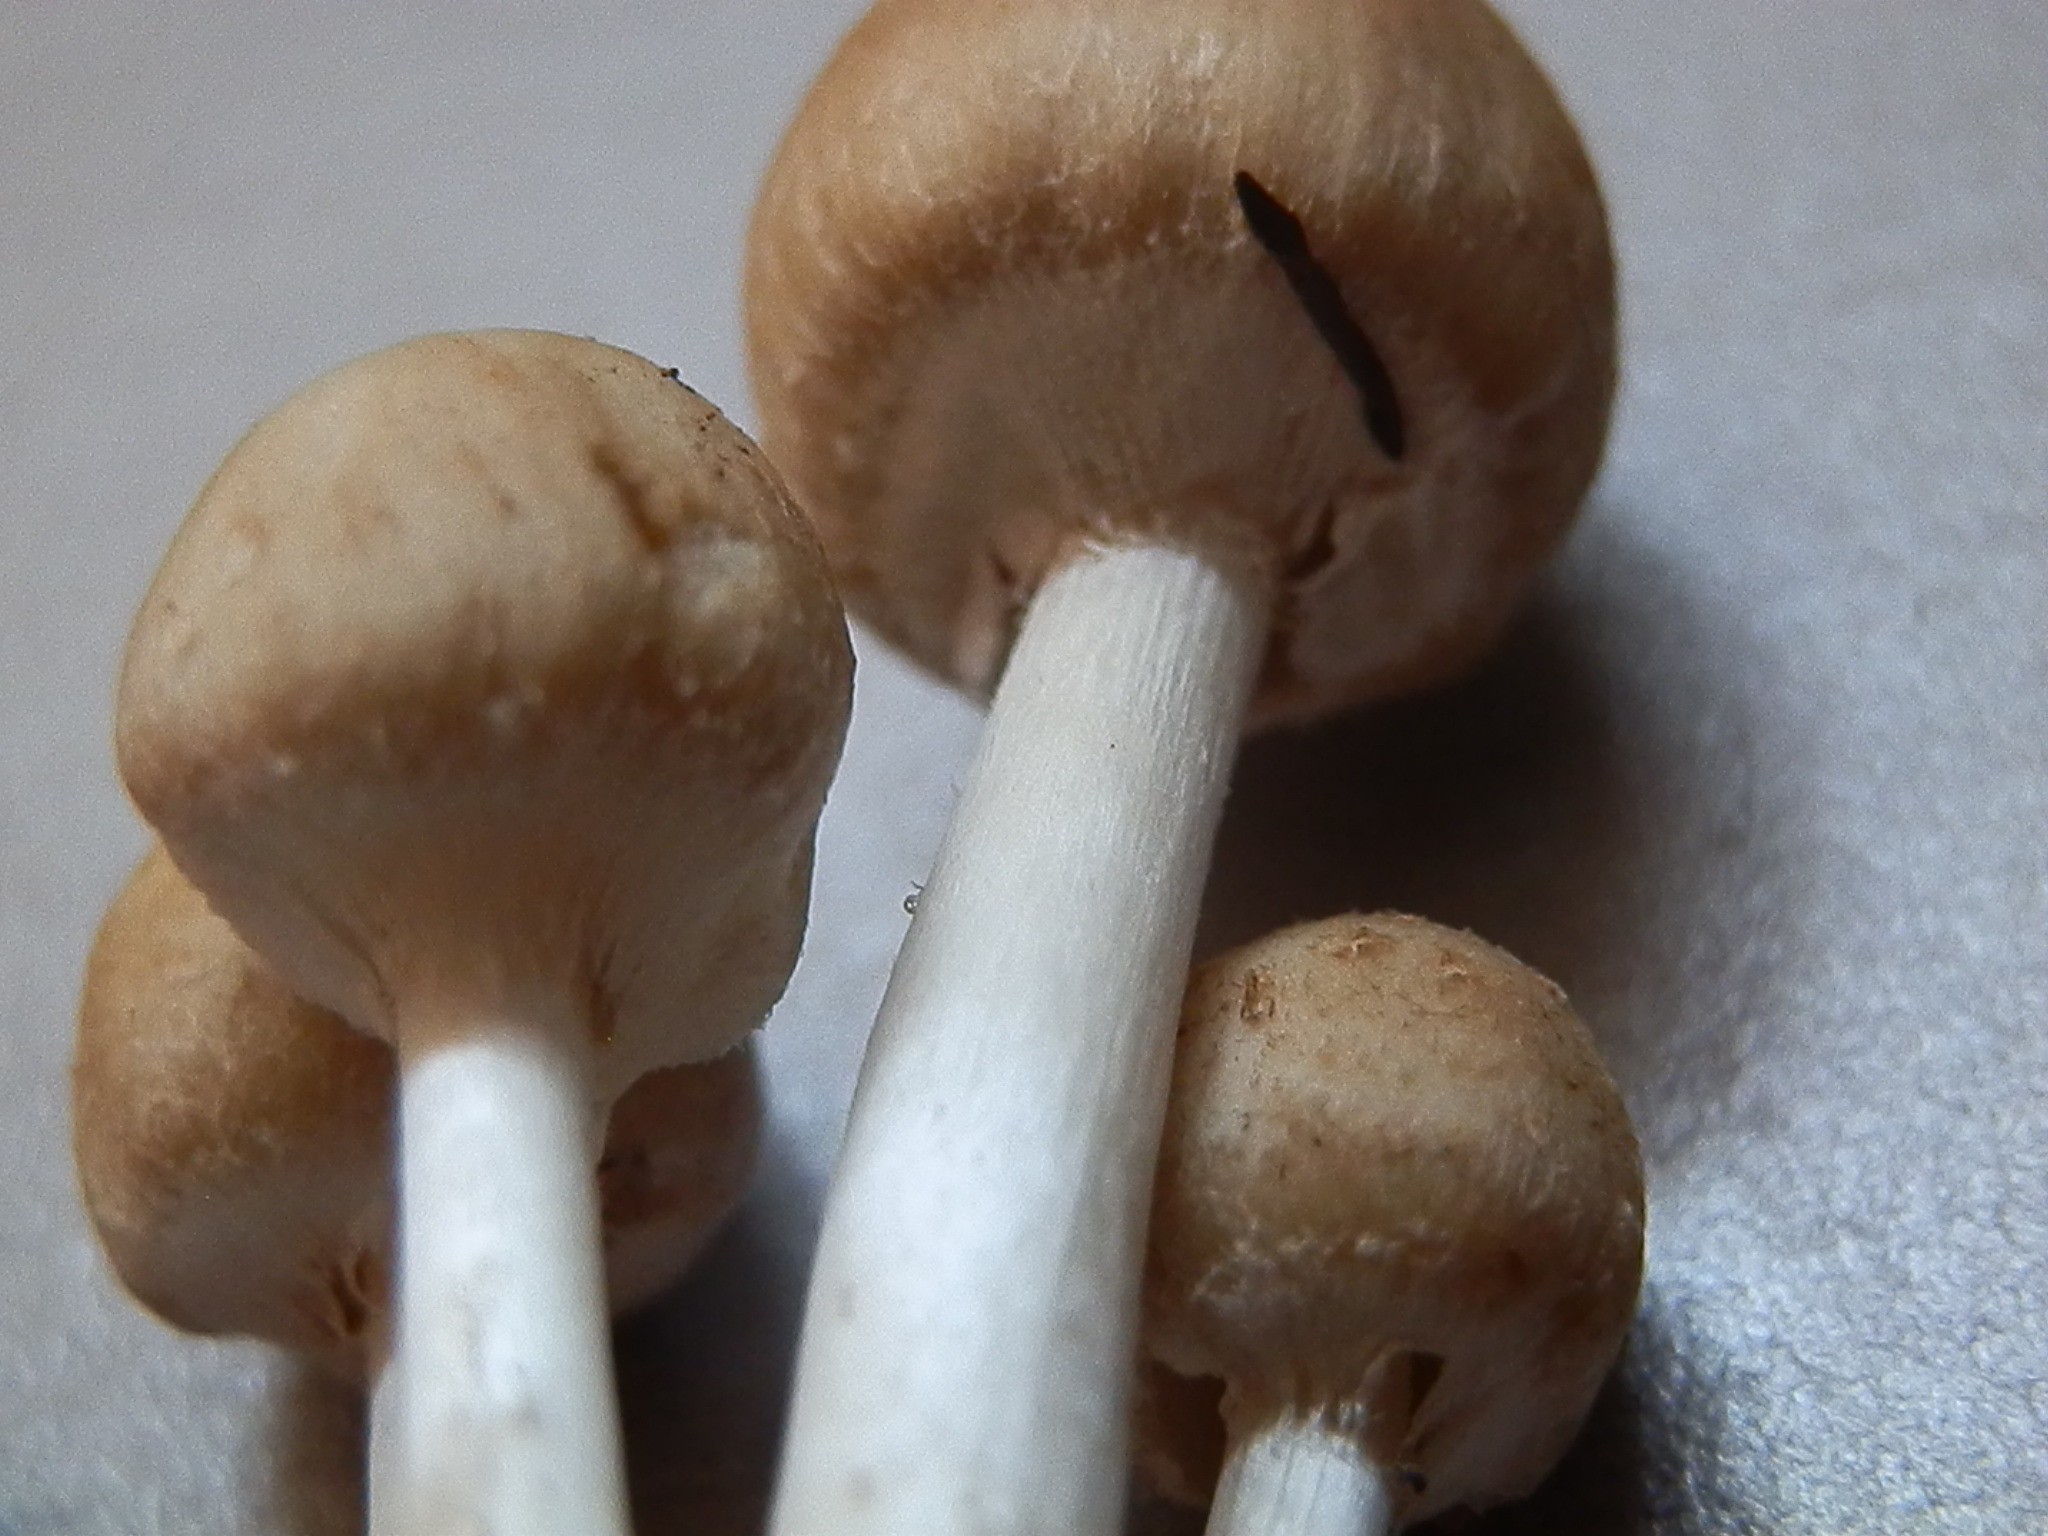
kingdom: Fungi
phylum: Basidiomycota
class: Agaricomycetes
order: Agaricales
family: Psathyrellaceae
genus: Candolleomyces
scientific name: Candolleomyces candolleanus
